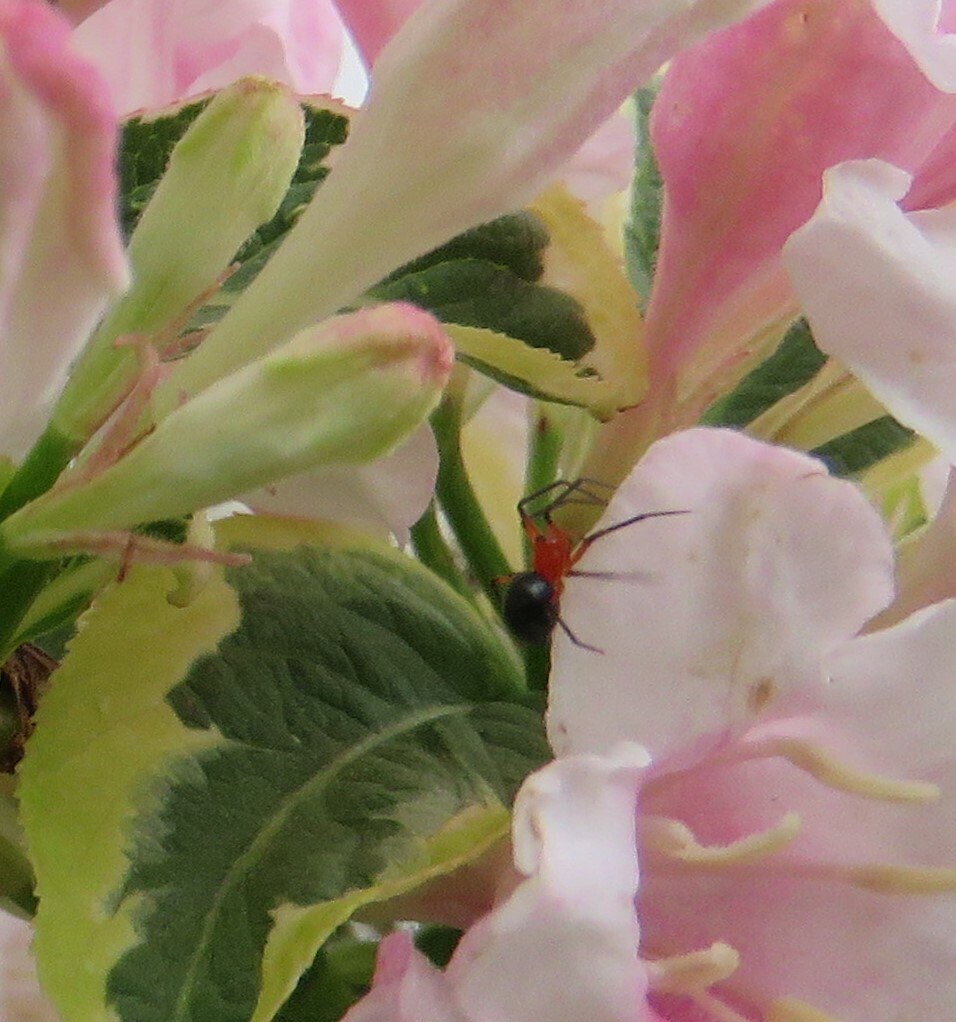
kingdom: Animalia
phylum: Arthropoda
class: Arachnida
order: Araneae
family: Linyphiidae
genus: Hypselistes
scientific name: Hypselistes florens
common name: Peatland sheetweb weaver
